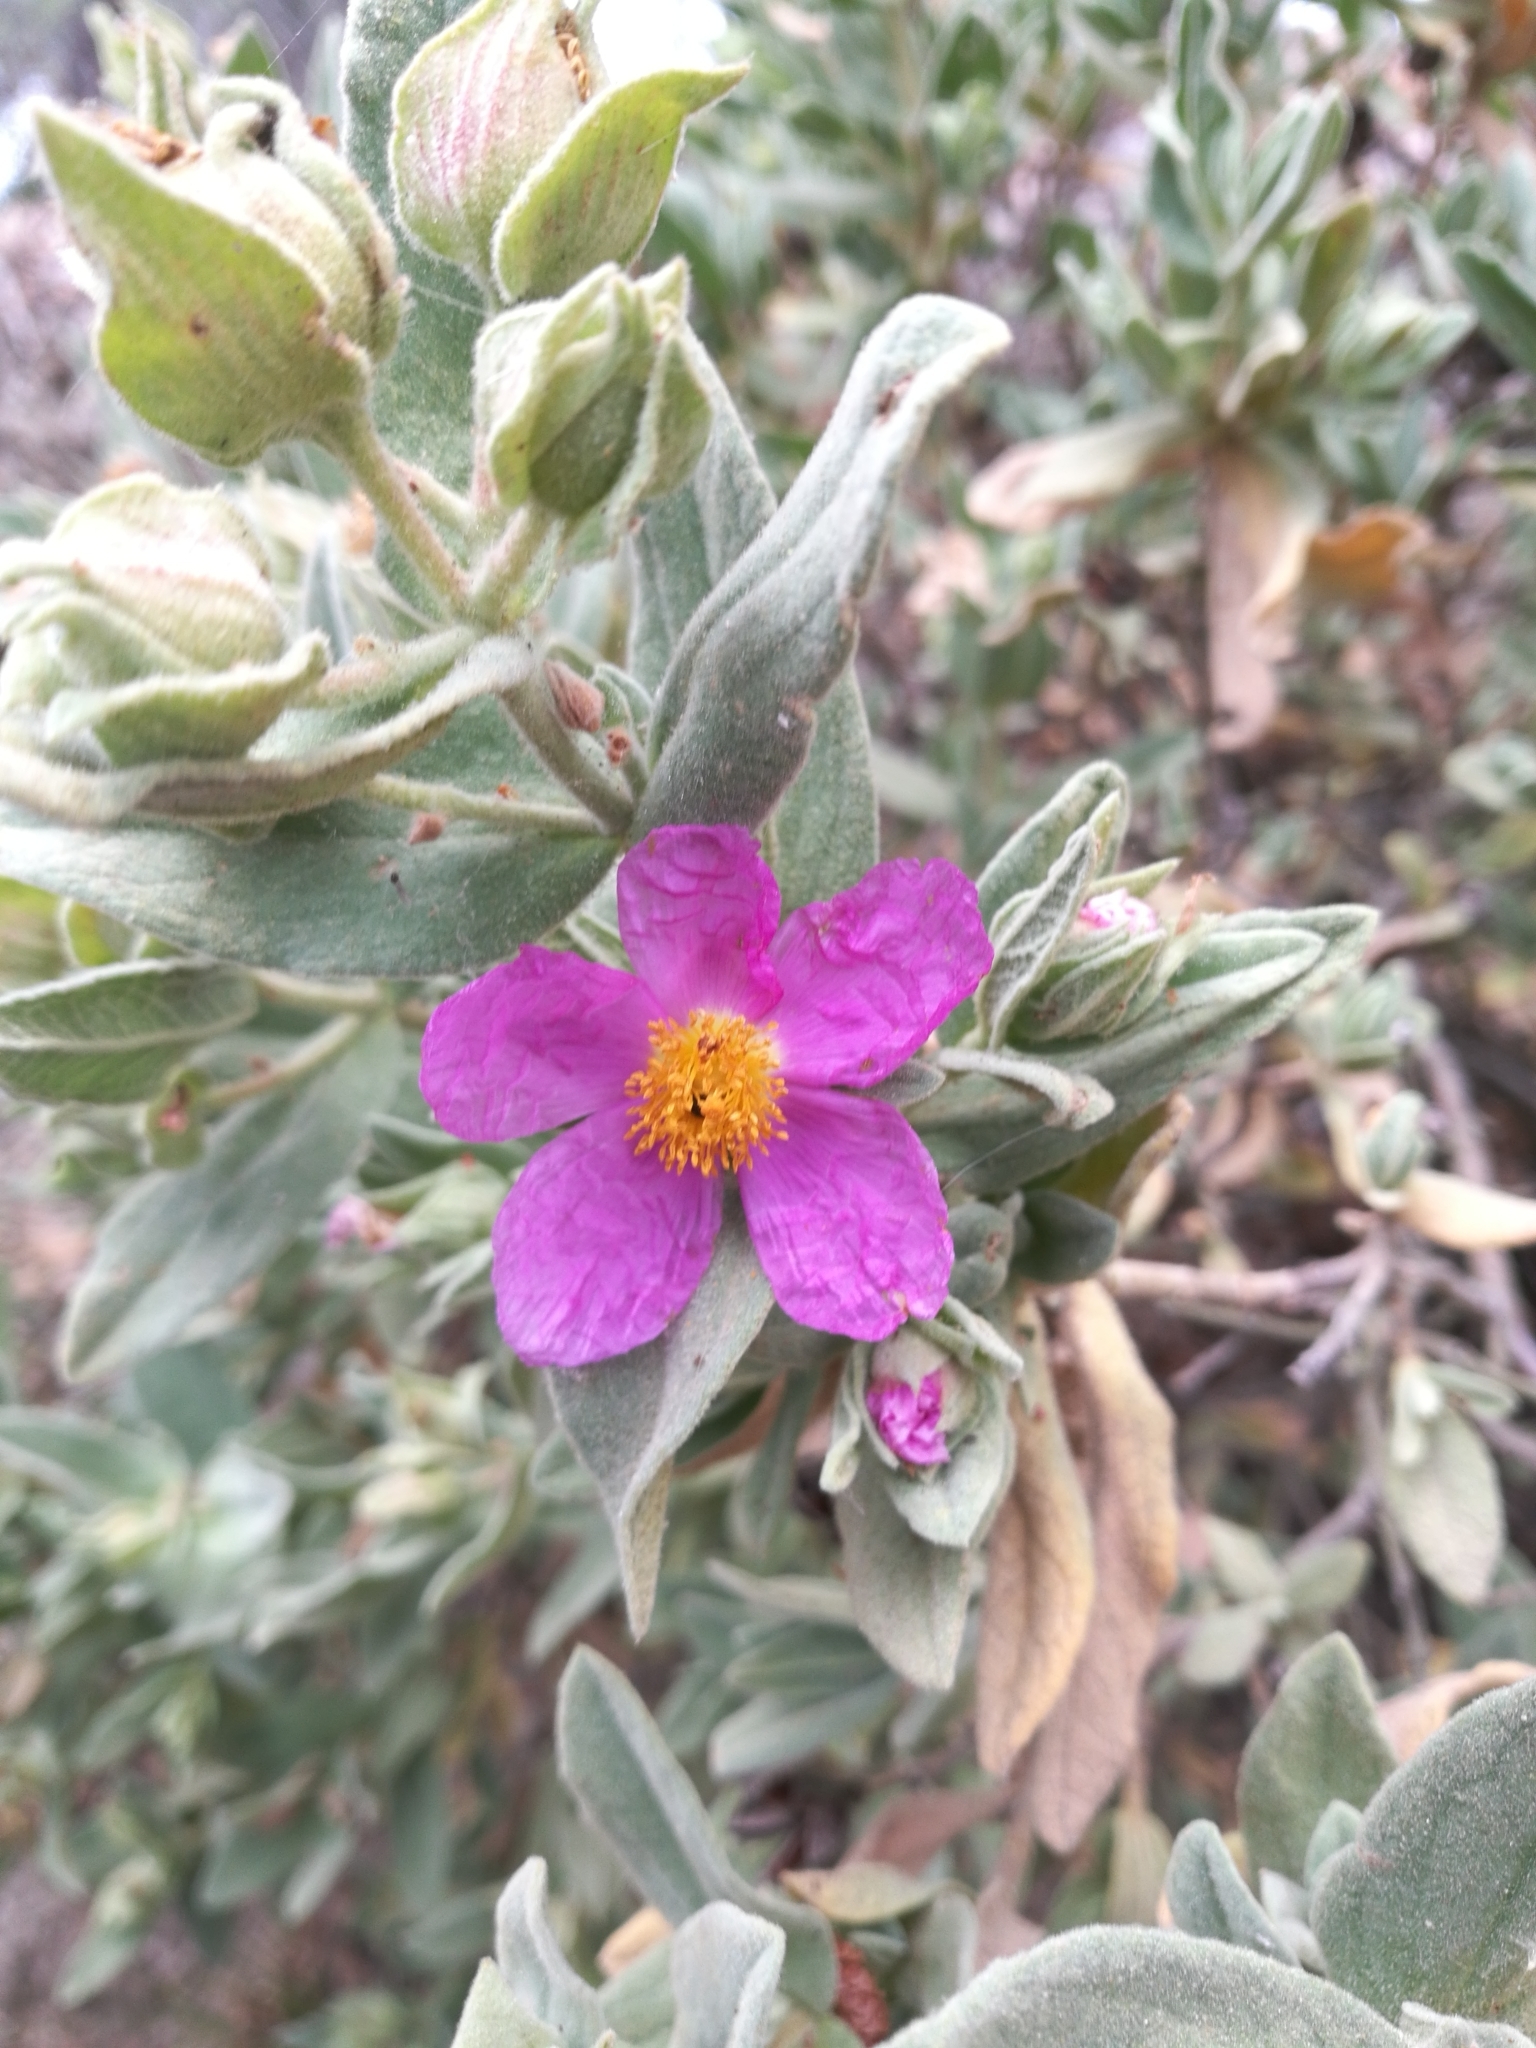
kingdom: Plantae
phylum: Tracheophyta
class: Magnoliopsida
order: Malvales
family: Cistaceae
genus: Cistus
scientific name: Cistus albidus
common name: White-leaf rock-rose
